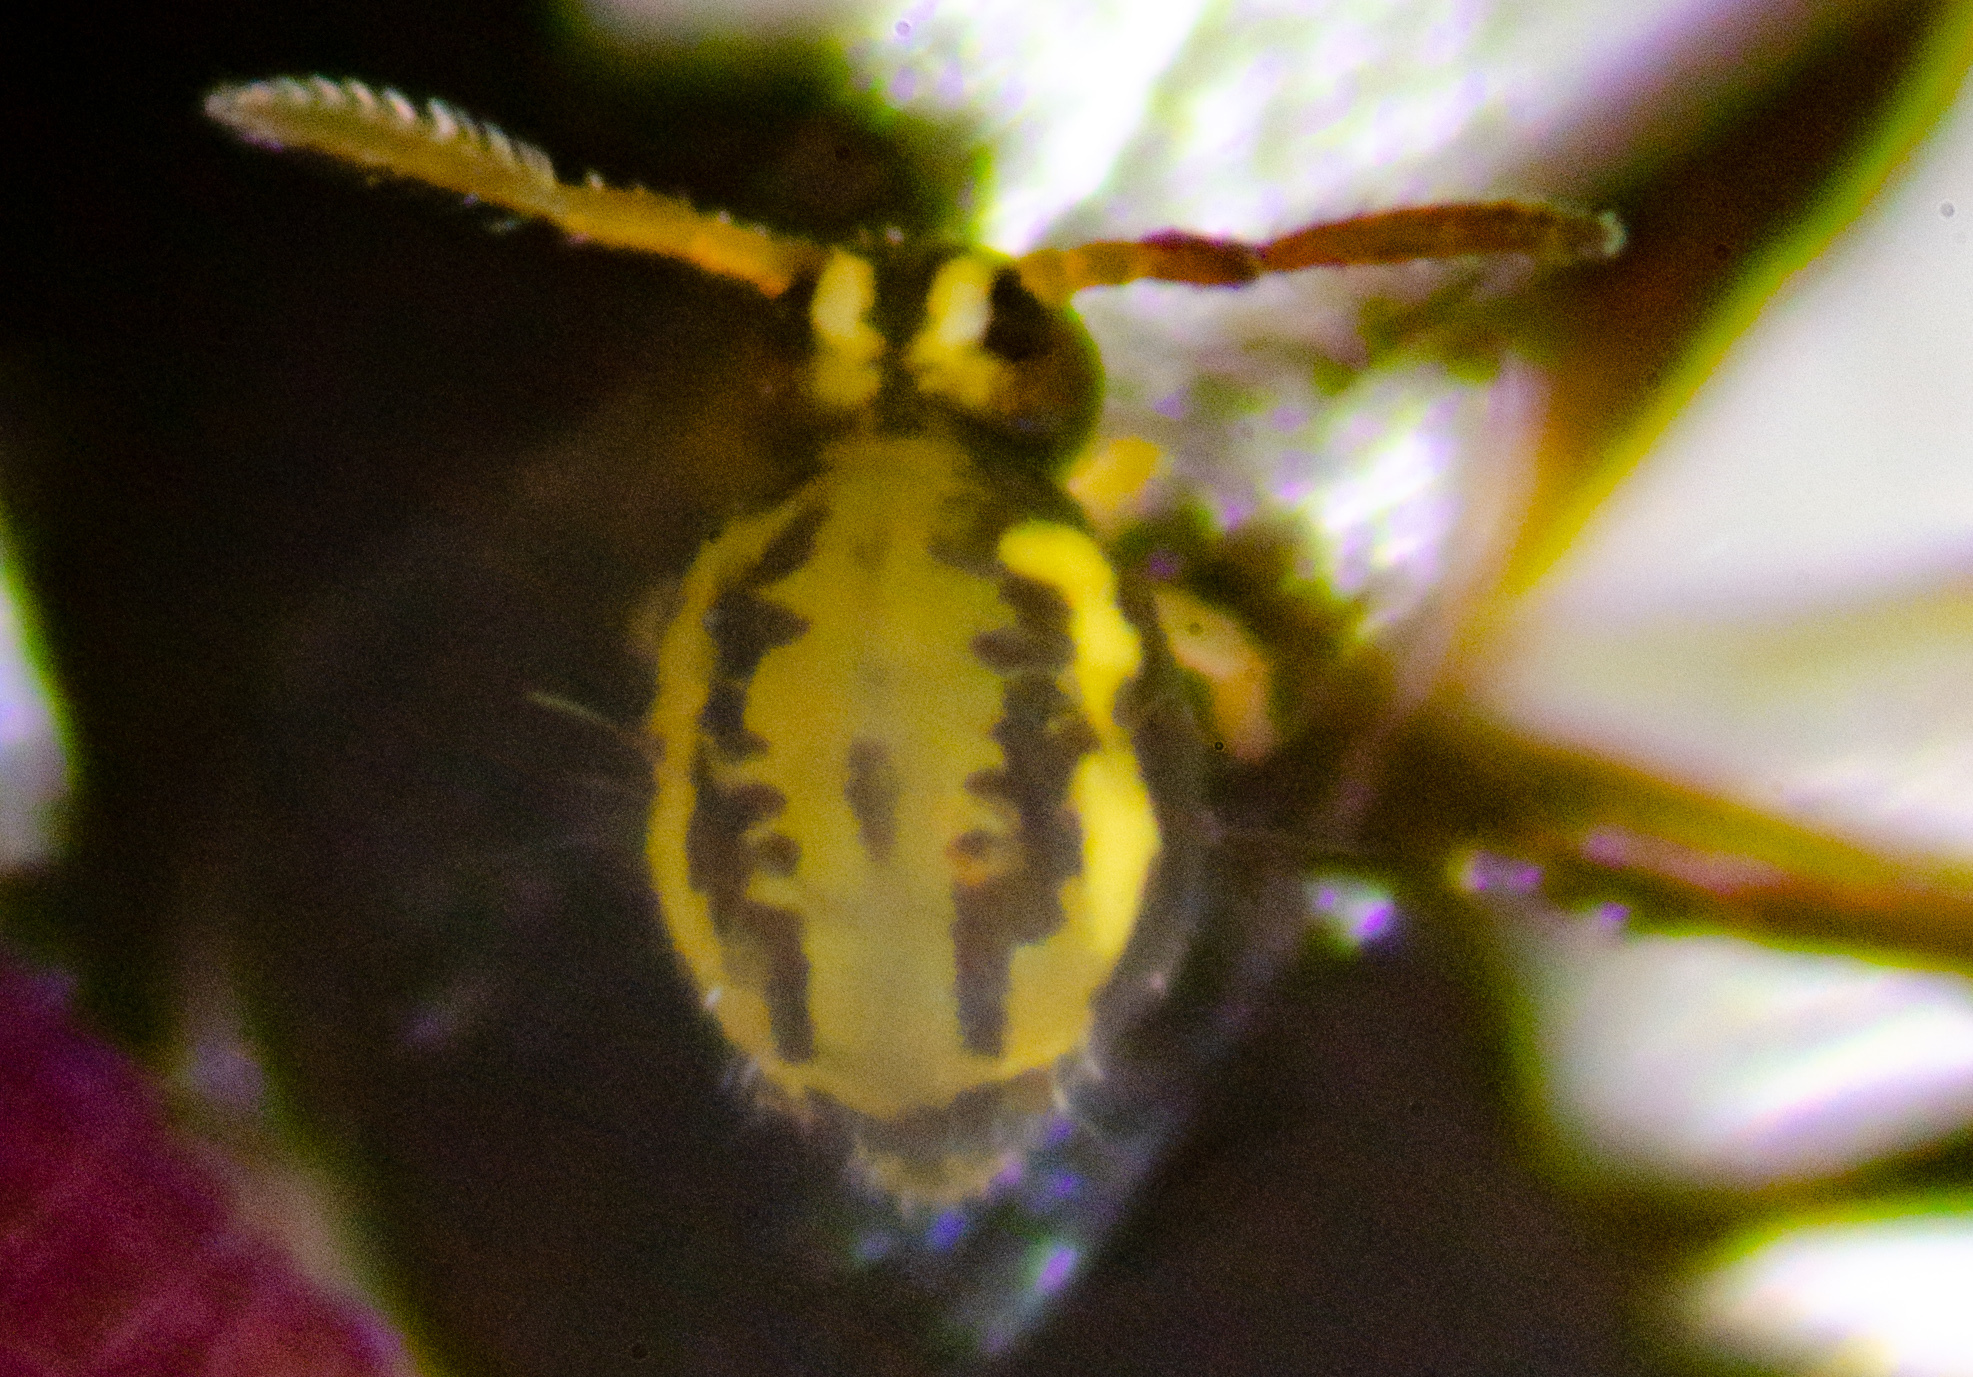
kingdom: Animalia
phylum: Arthropoda
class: Collembola
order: Symphypleona
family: Katiannidae
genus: Sminthurinus
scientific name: Sminthurinus elegans
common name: Globular springtail
